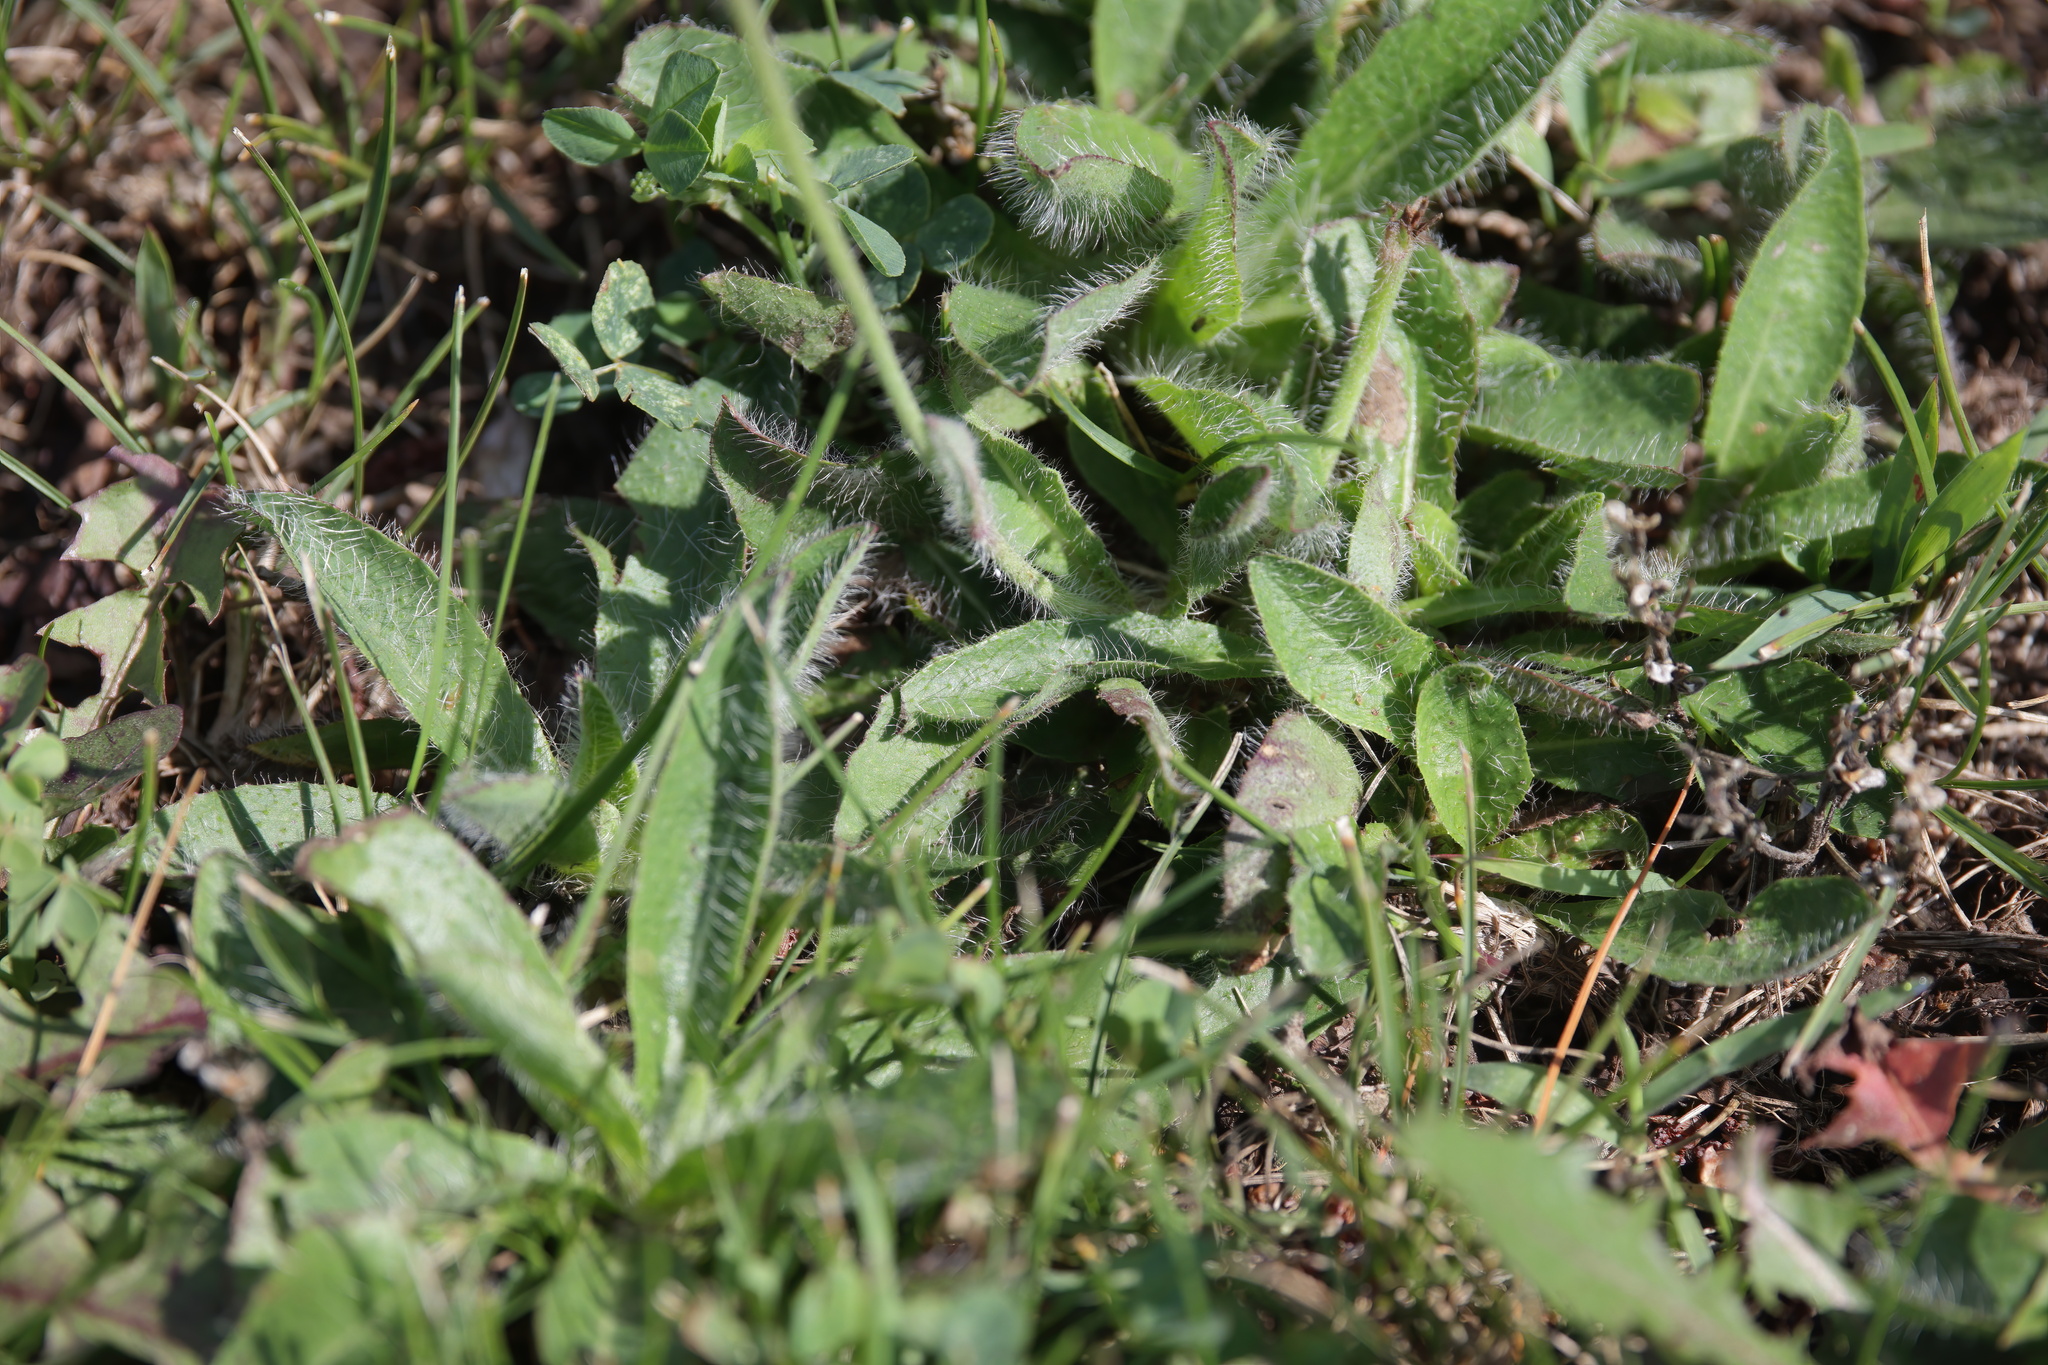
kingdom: Plantae
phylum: Tracheophyta
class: Magnoliopsida
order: Asterales
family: Asteraceae
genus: Pilosella
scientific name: Pilosella aurantiaca
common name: Fox-and-cubs
